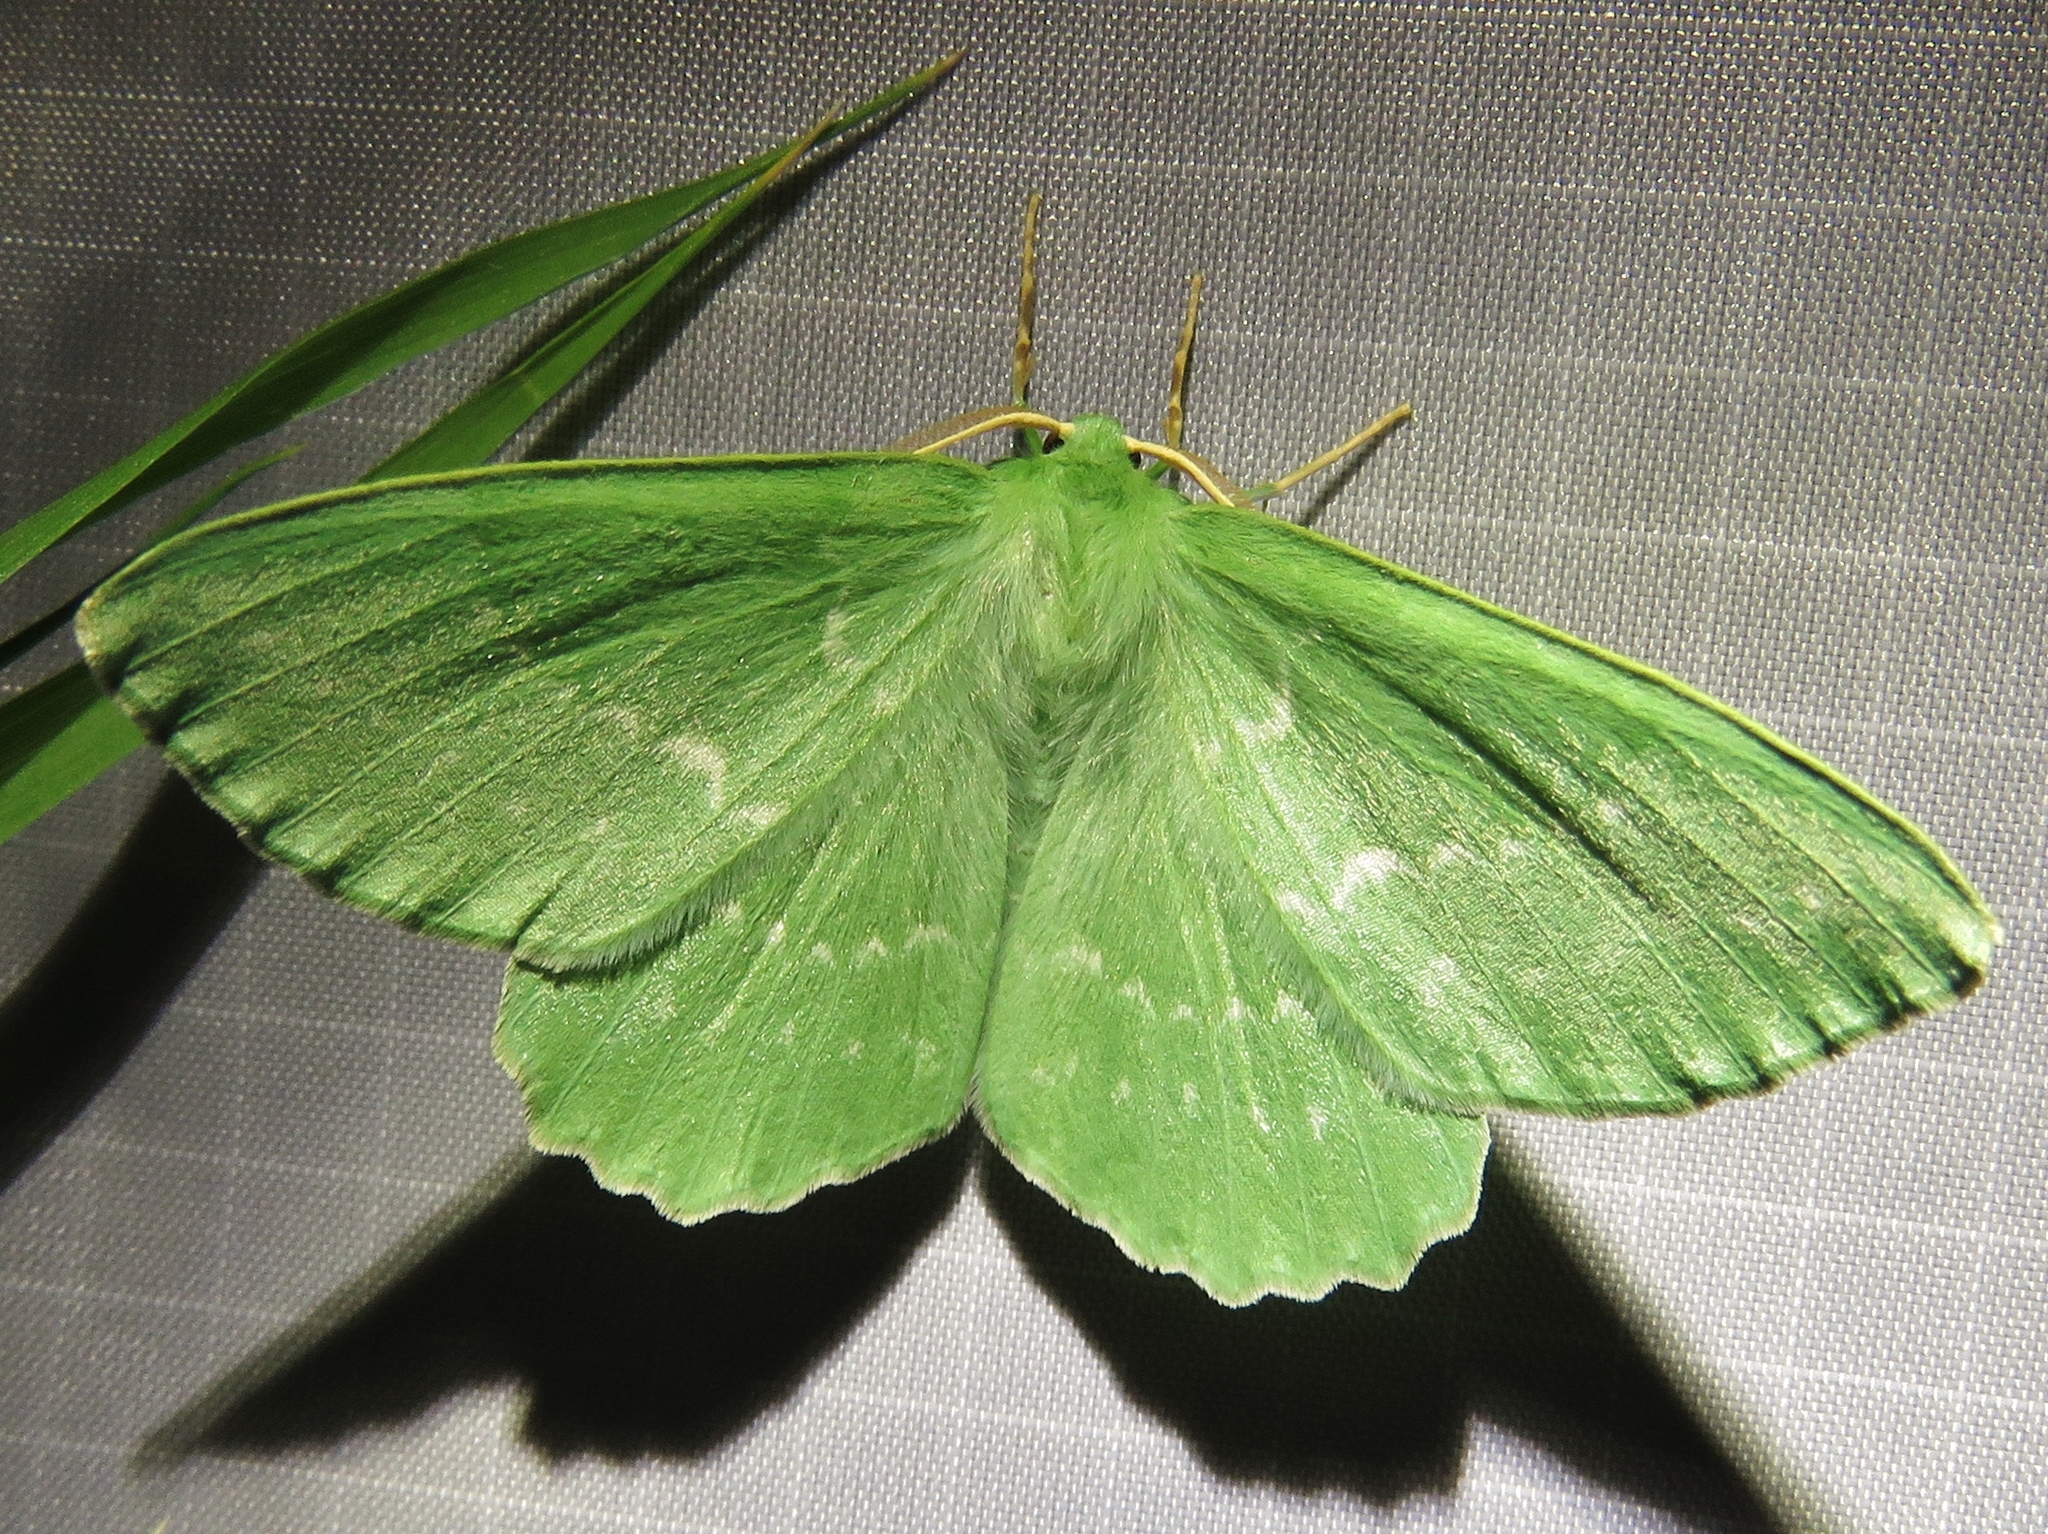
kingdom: Animalia
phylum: Arthropoda
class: Insecta
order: Lepidoptera
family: Geometridae
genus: Geometra
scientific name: Geometra papilionaria
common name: Large emerald
